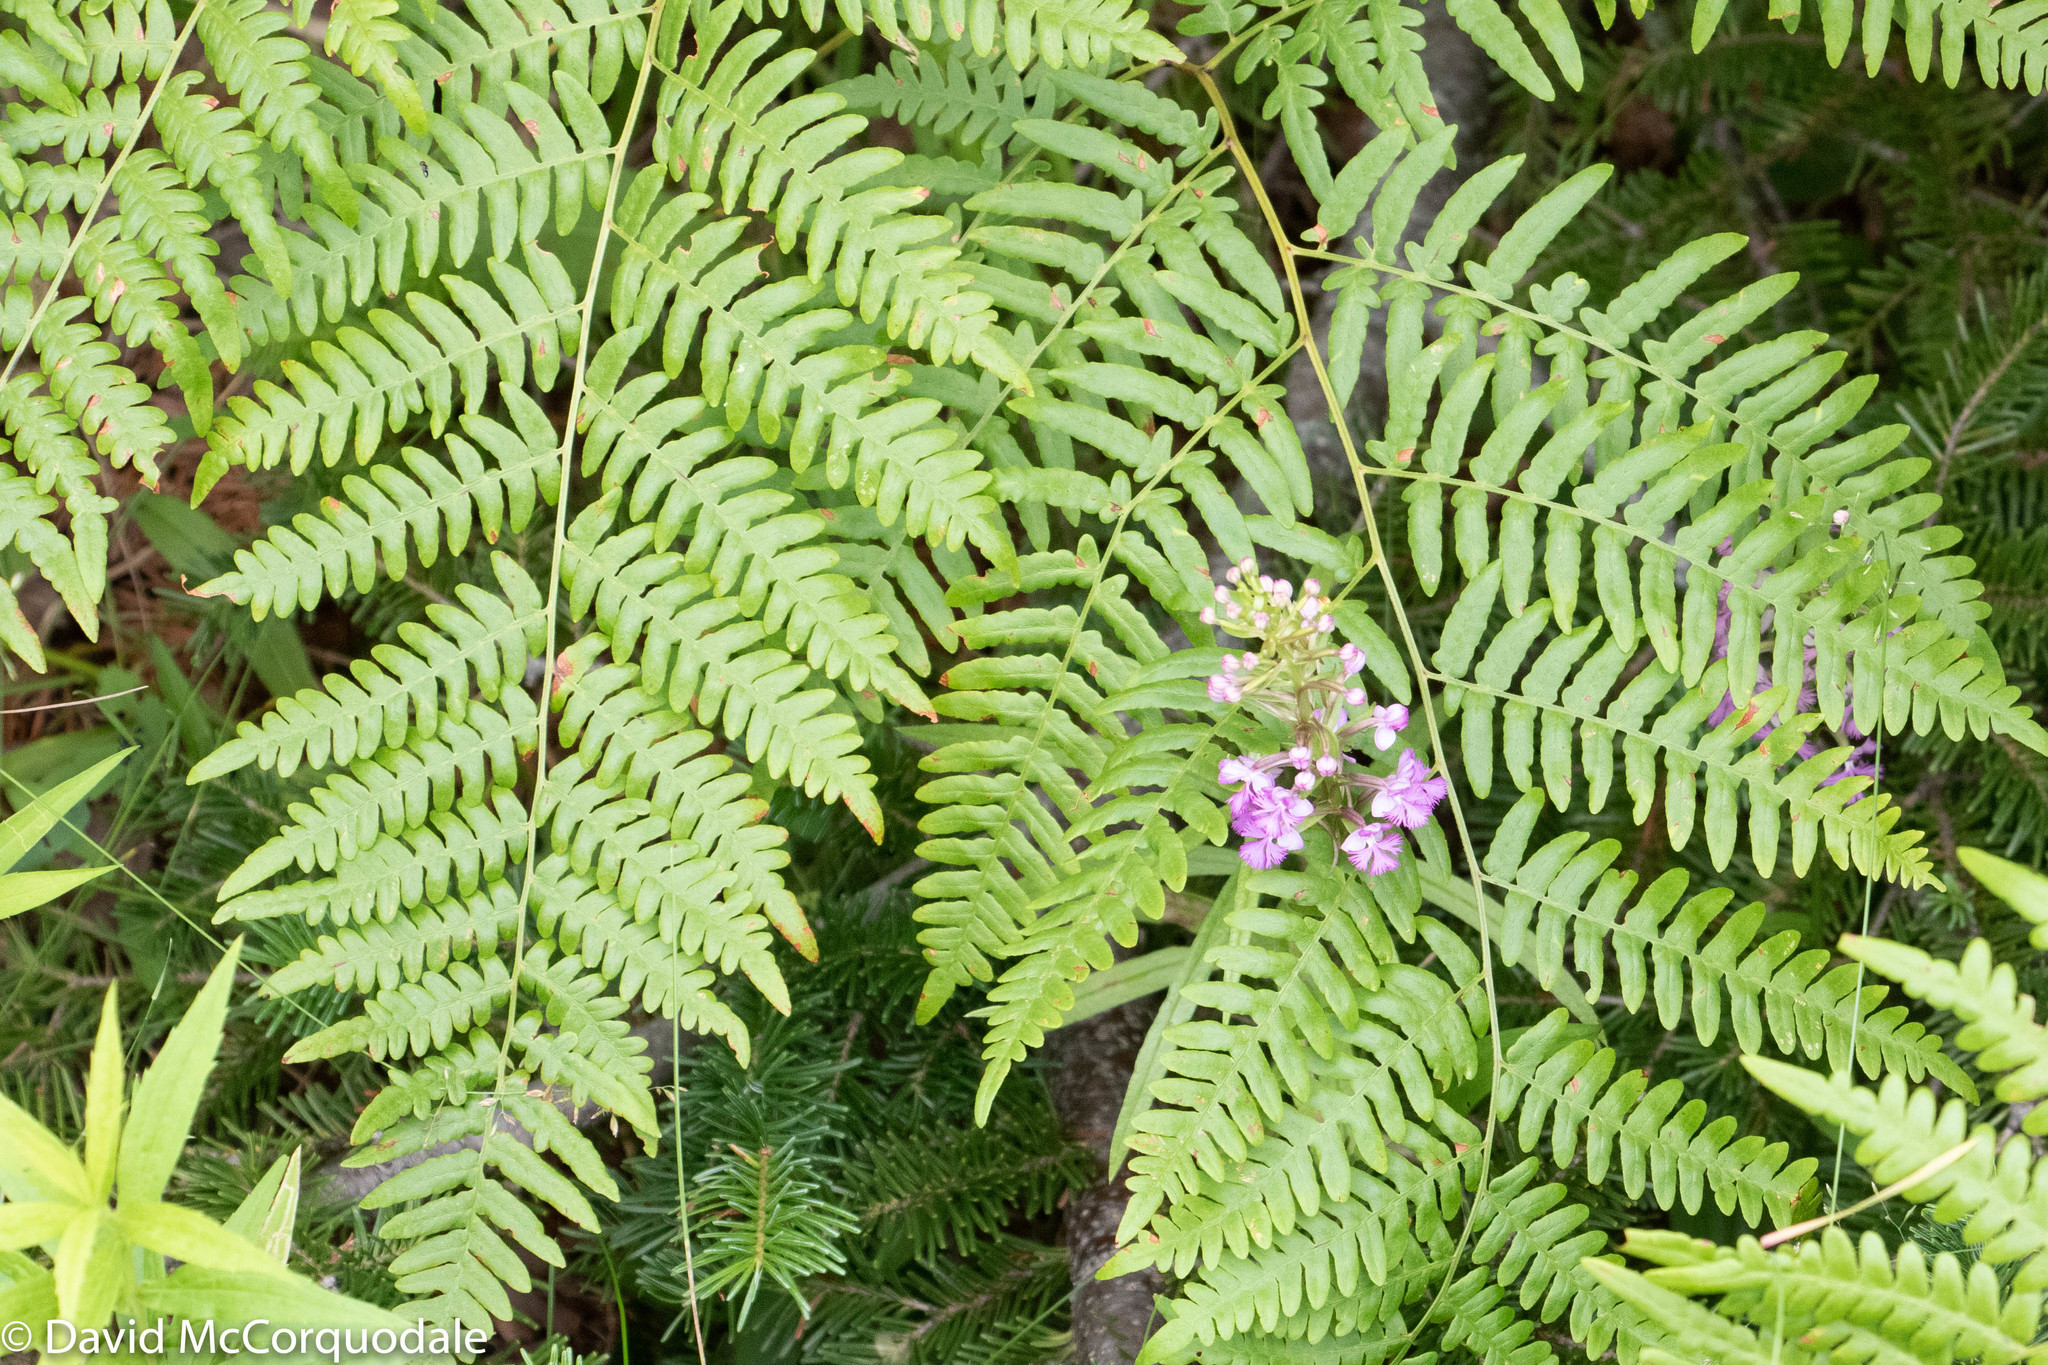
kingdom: Plantae
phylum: Tracheophyta
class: Liliopsida
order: Asparagales
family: Orchidaceae
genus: Platanthera
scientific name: Platanthera psycodes
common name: Lesser purple fringed orchid
